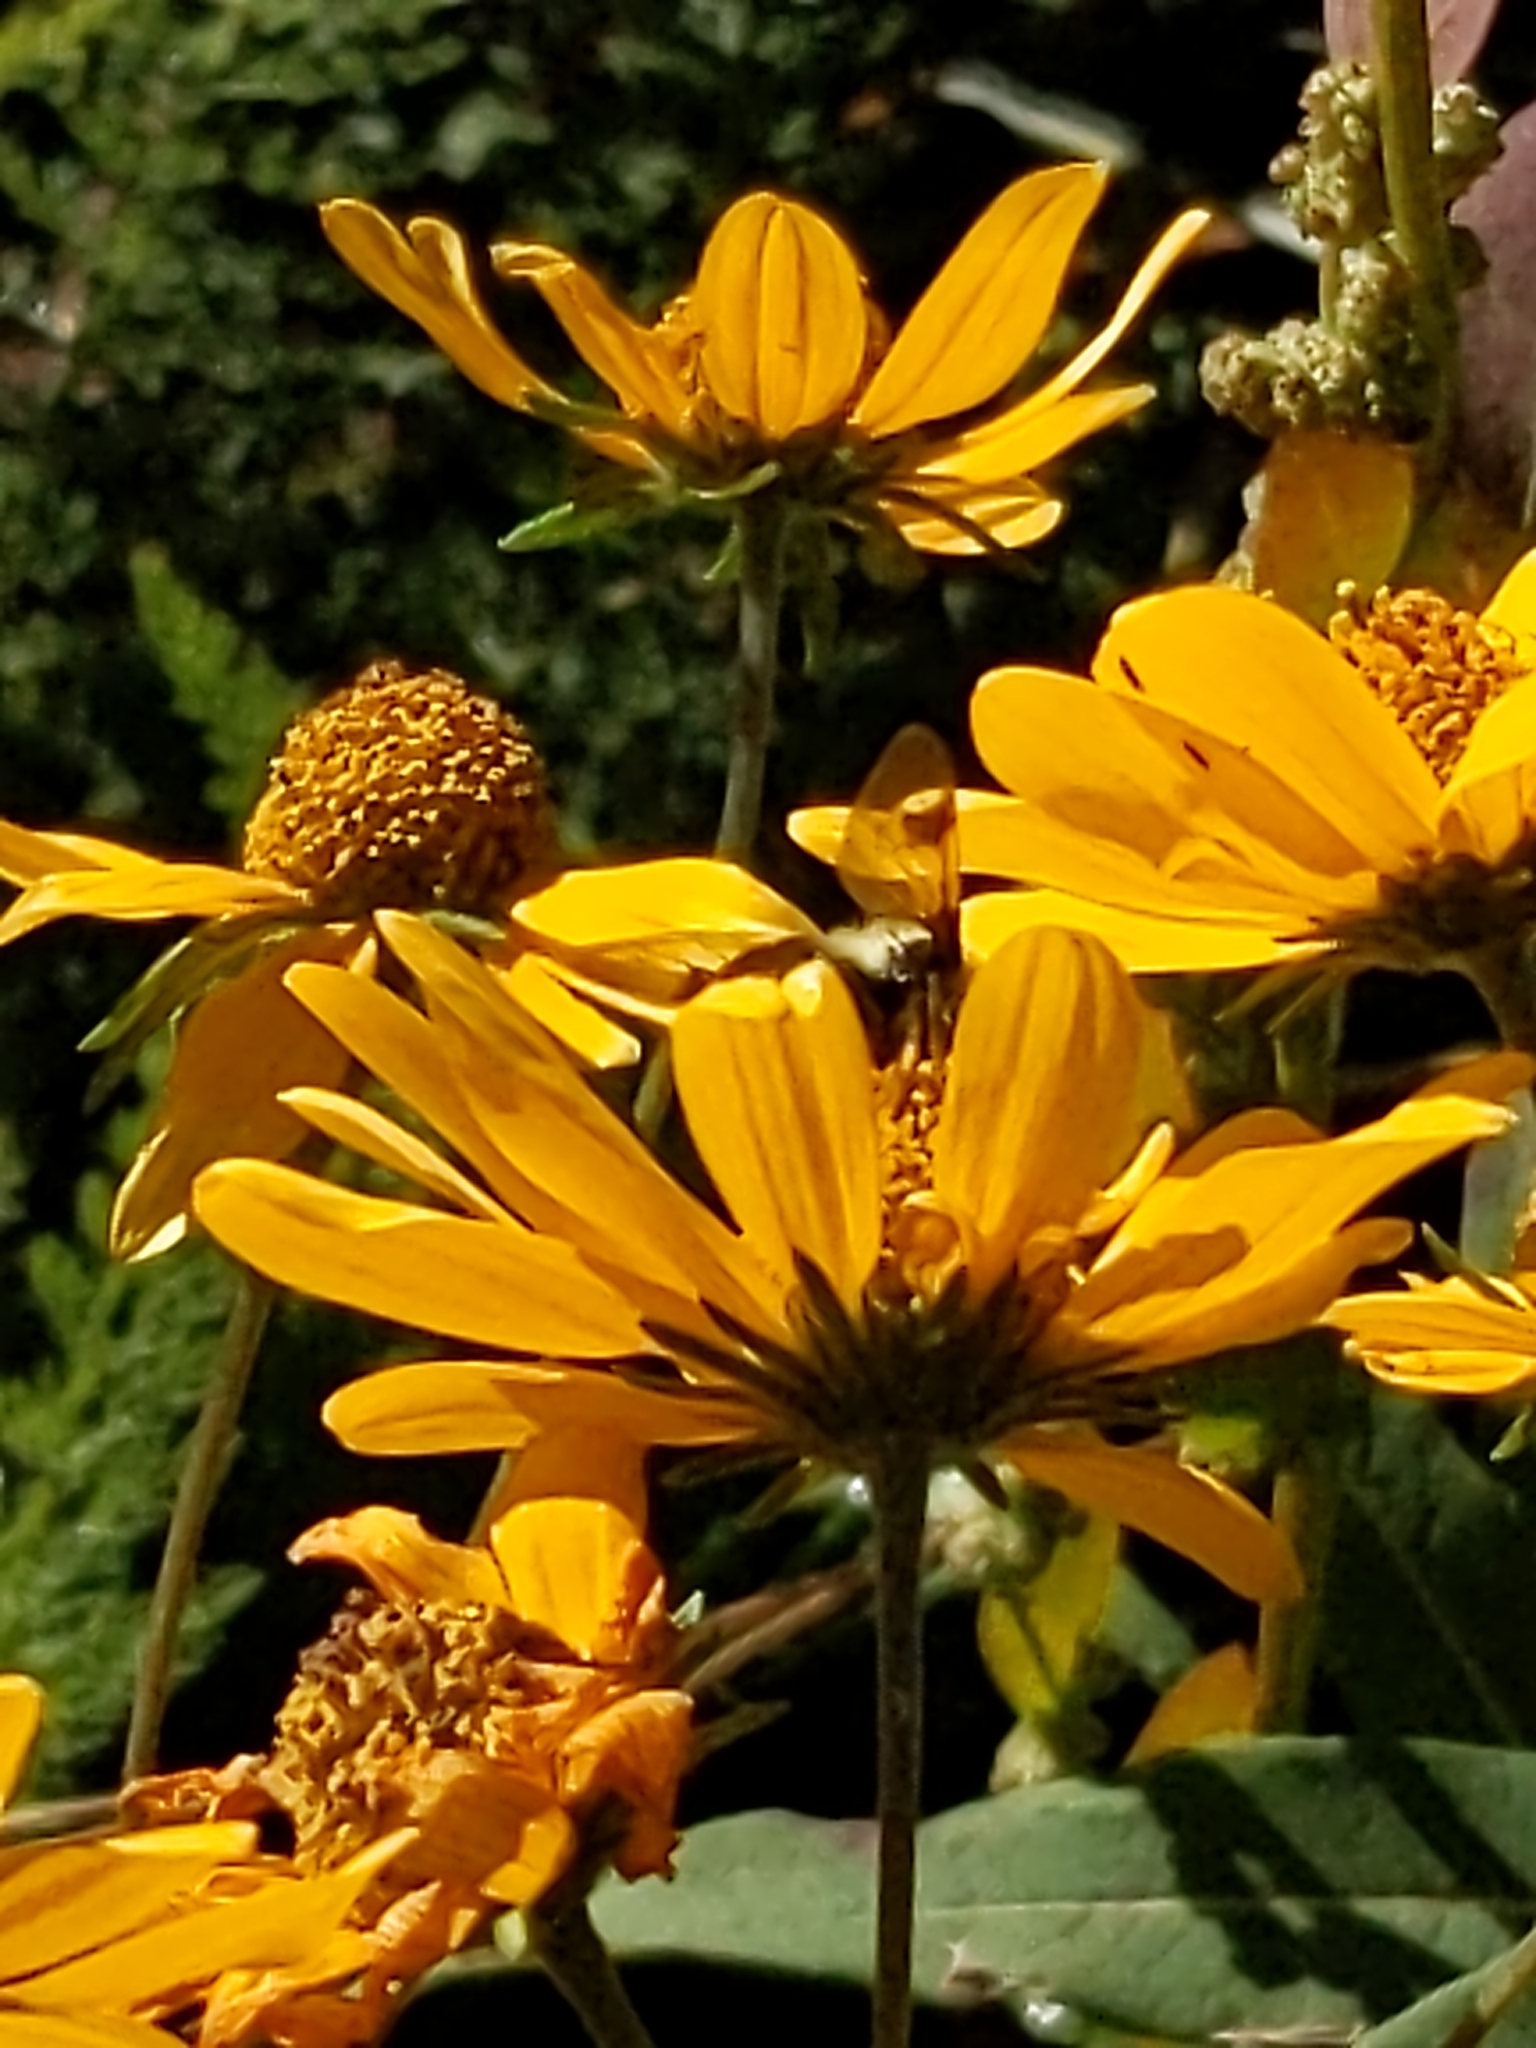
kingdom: Animalia
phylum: Arthropoda
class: Insecta
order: Diptera
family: Syrphidae
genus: Sericomyia
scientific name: Sericomyia flagrans
